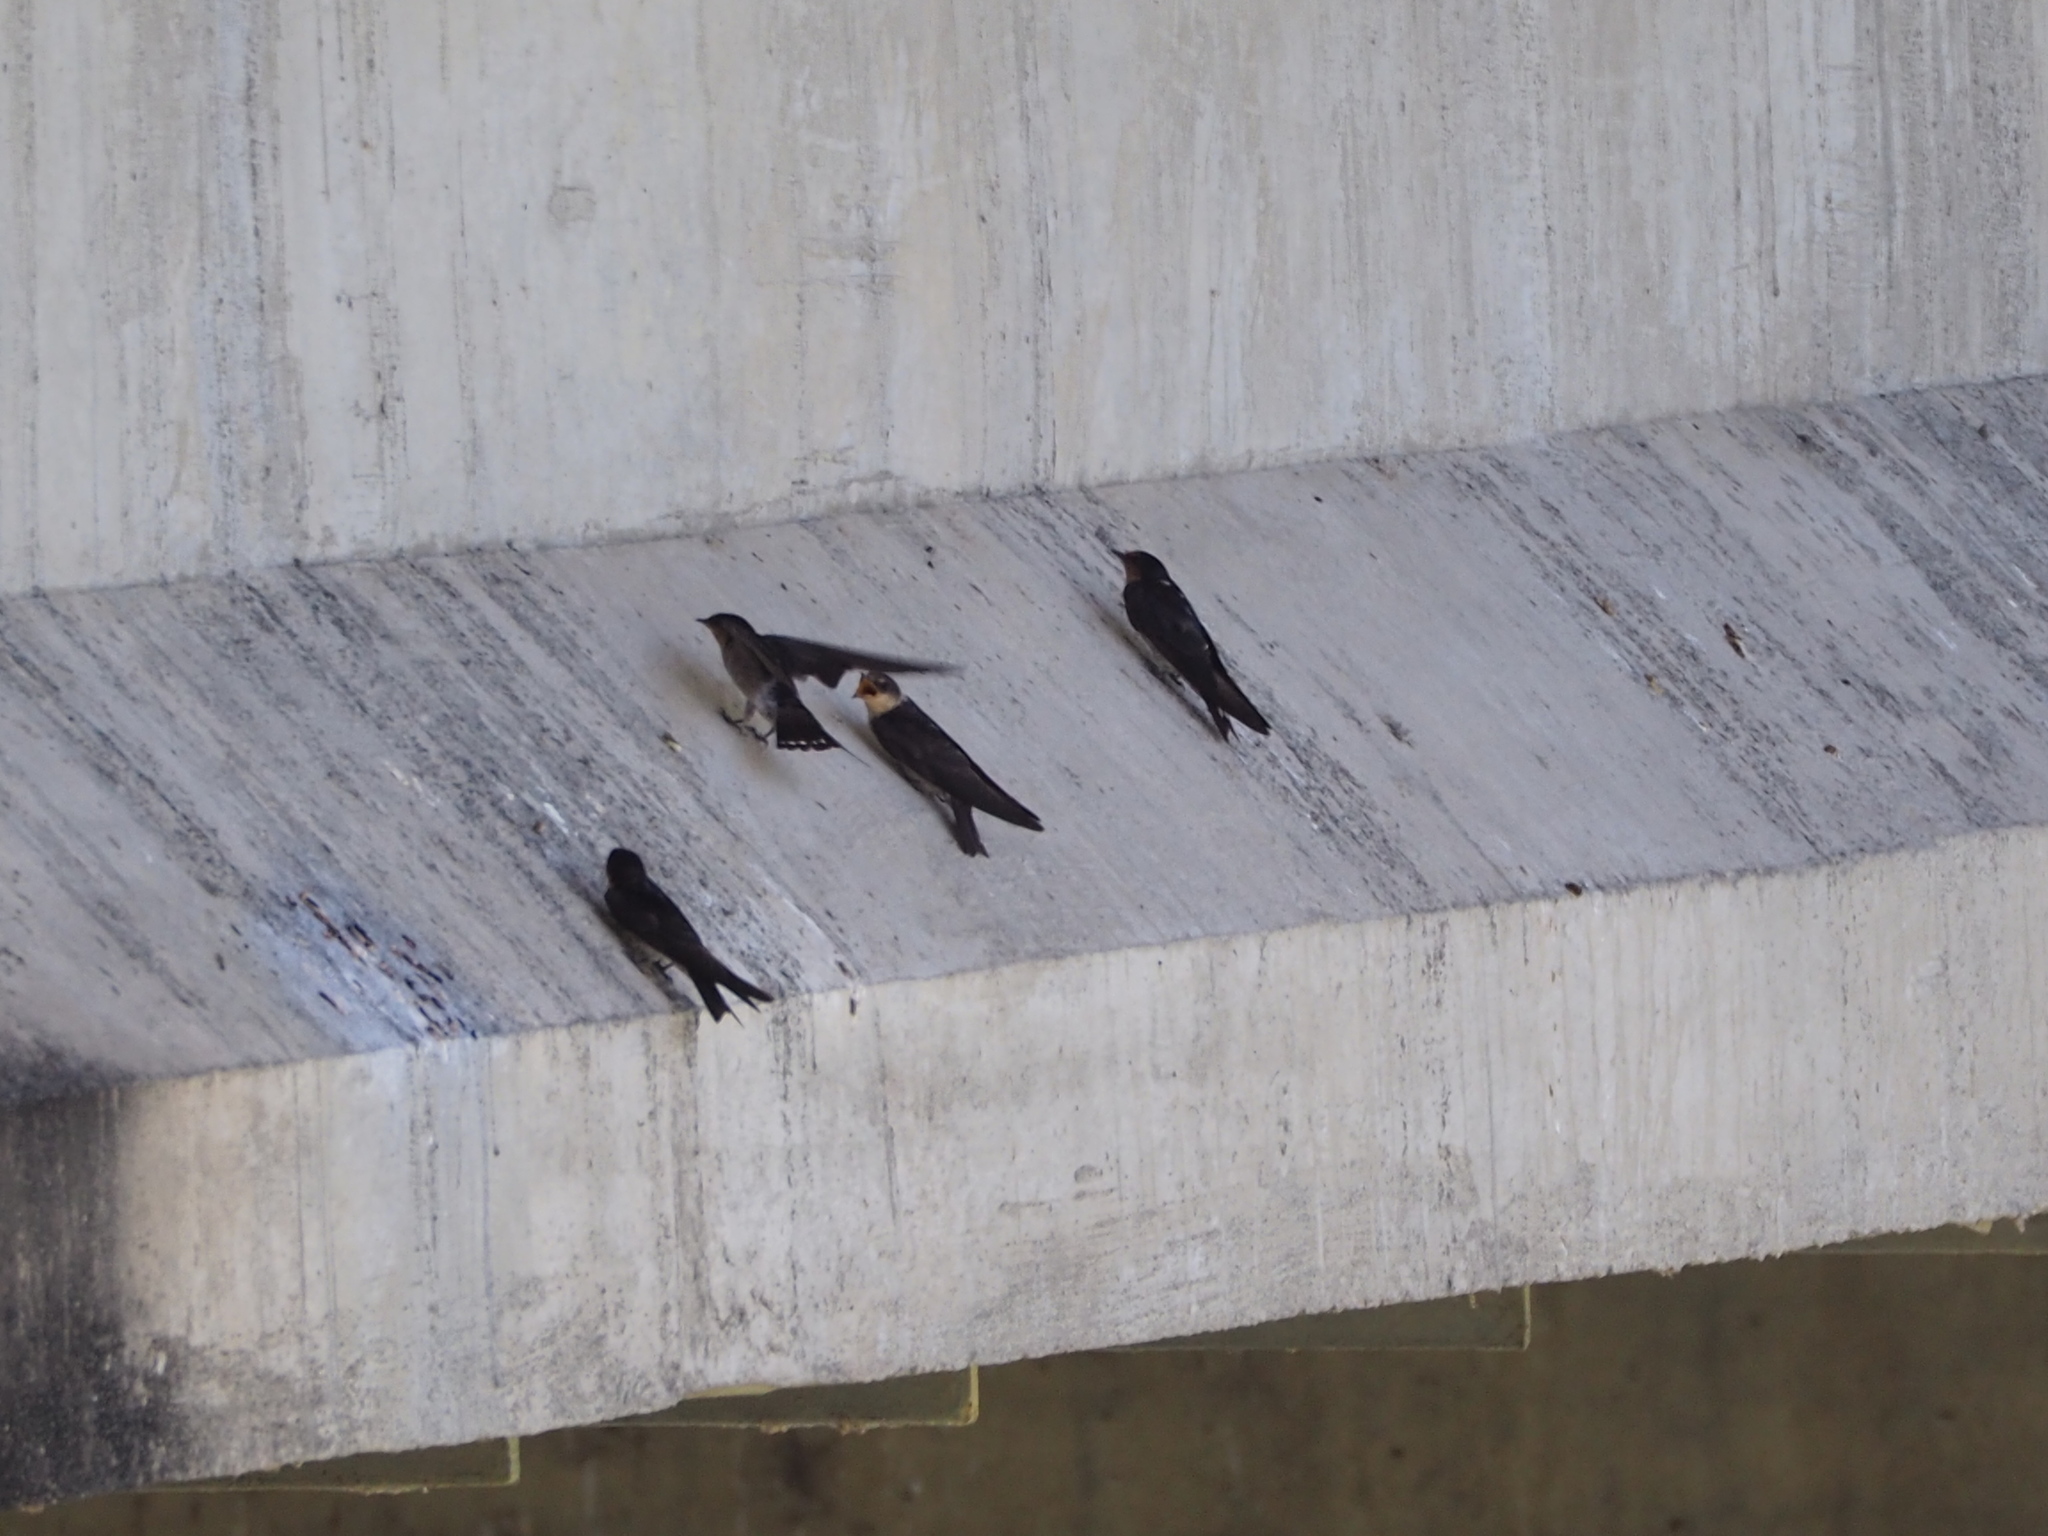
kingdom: Animalia
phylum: Chordata
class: Aves
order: Passeriformes
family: Hirundinidae
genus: Hirundo
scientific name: Hirundo tahitica
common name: Pacific swallow
